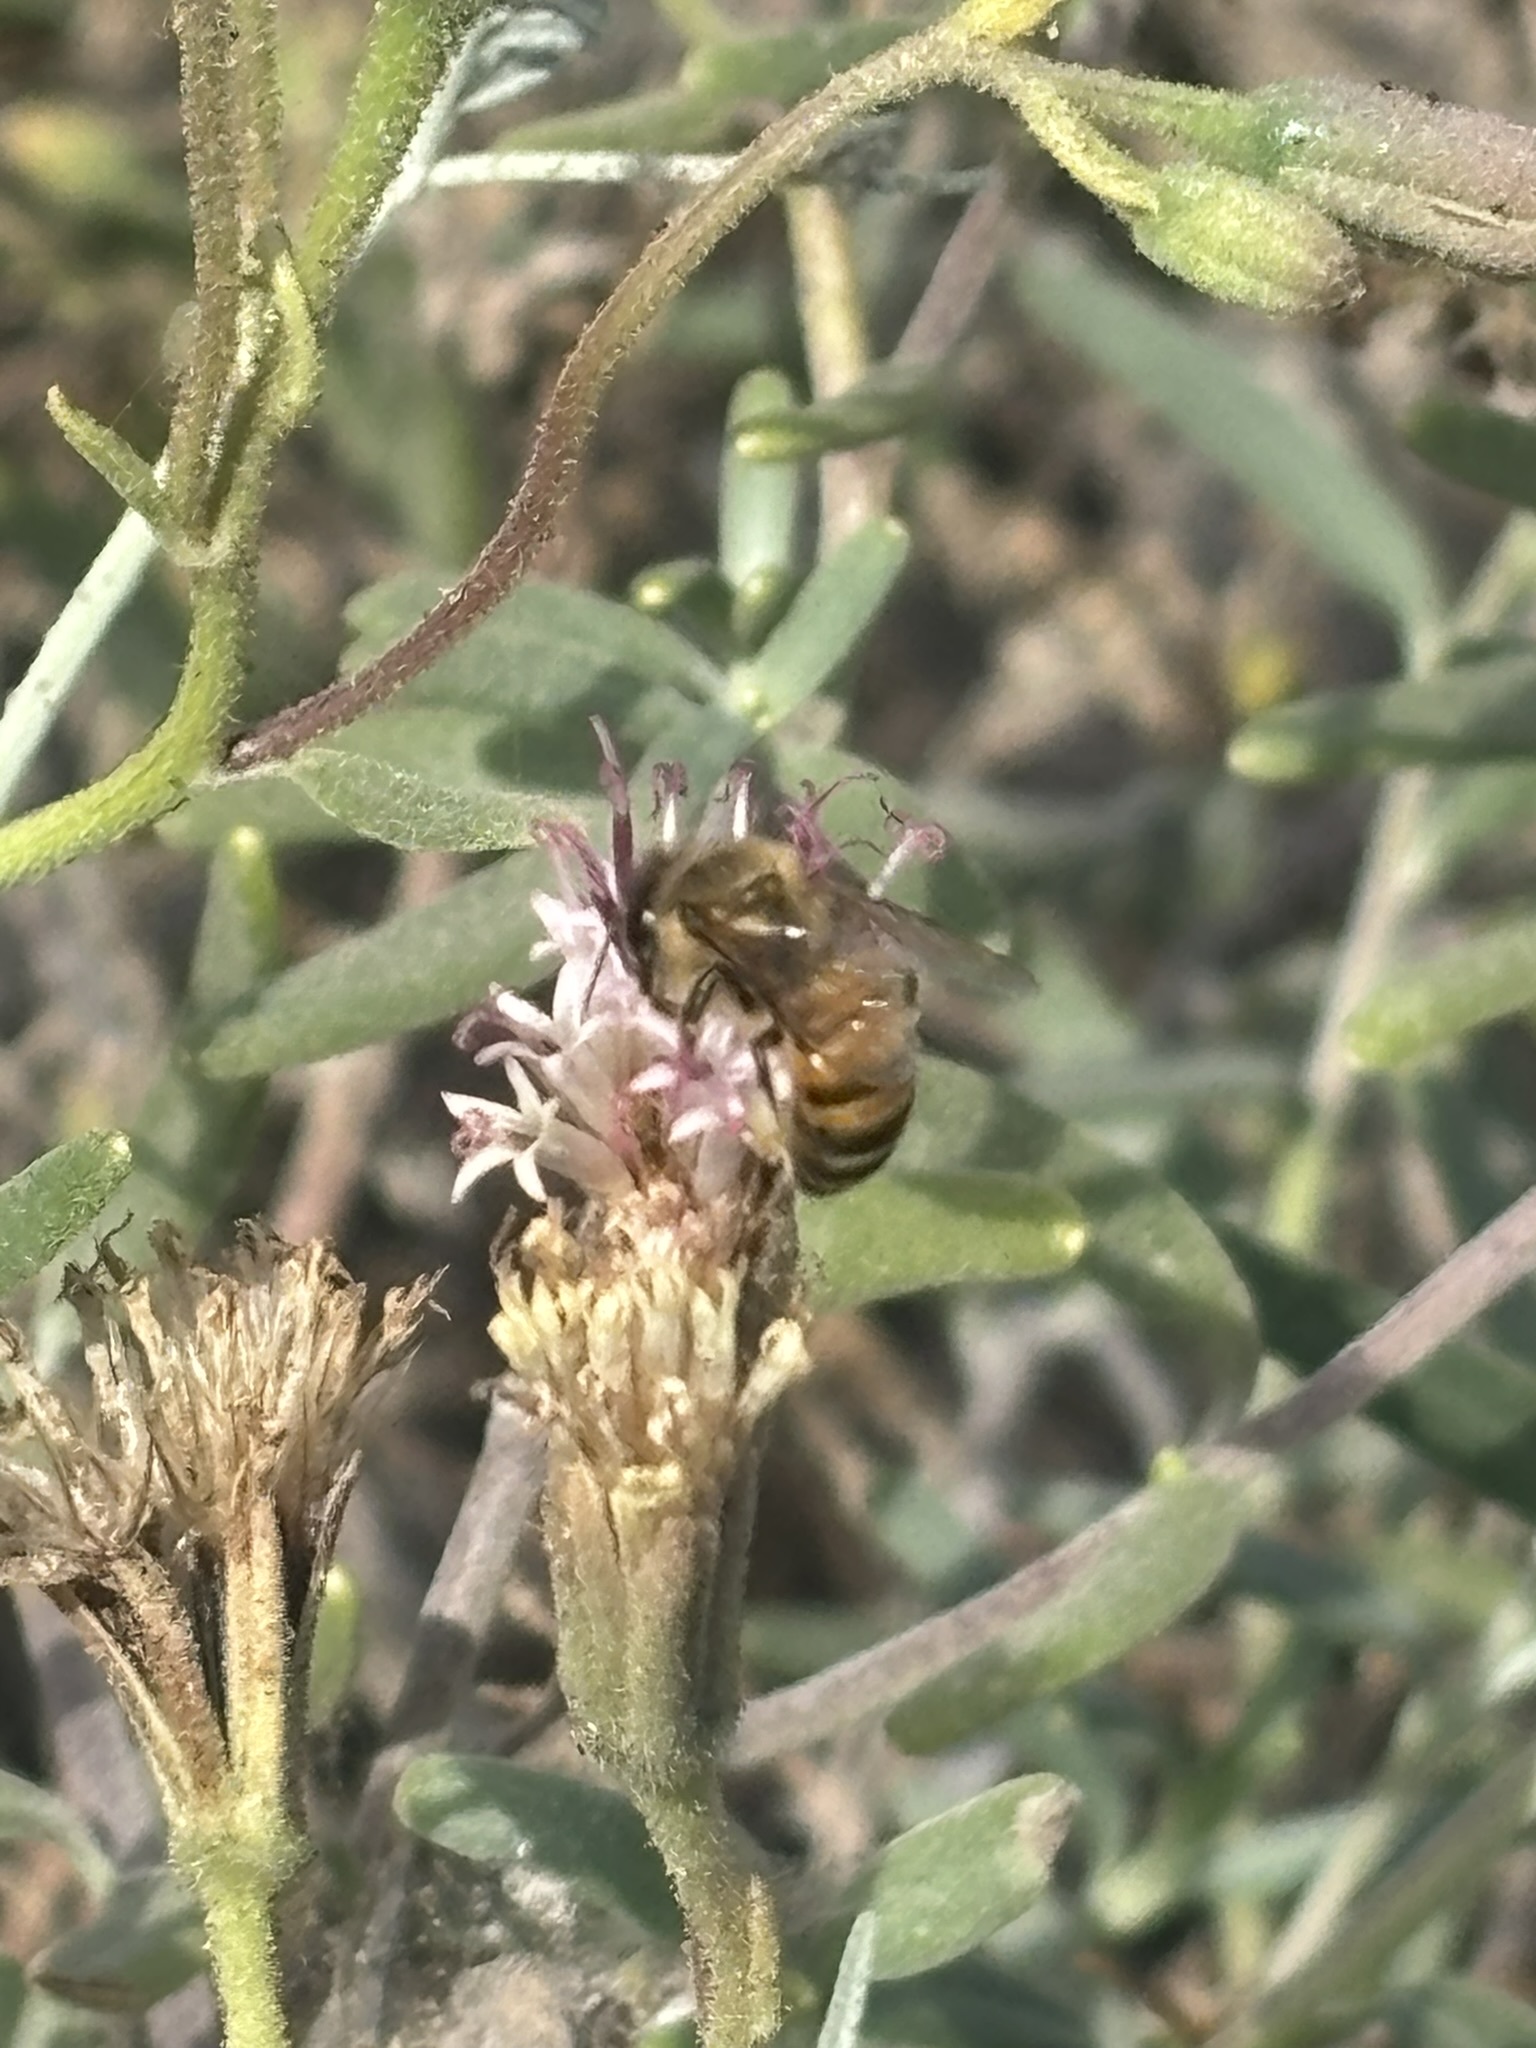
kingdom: Animalia
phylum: Arthropoda
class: Insecta
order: Hymenoptera
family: Apidae
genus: Apis
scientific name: Apis mellifera
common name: Honey bee
